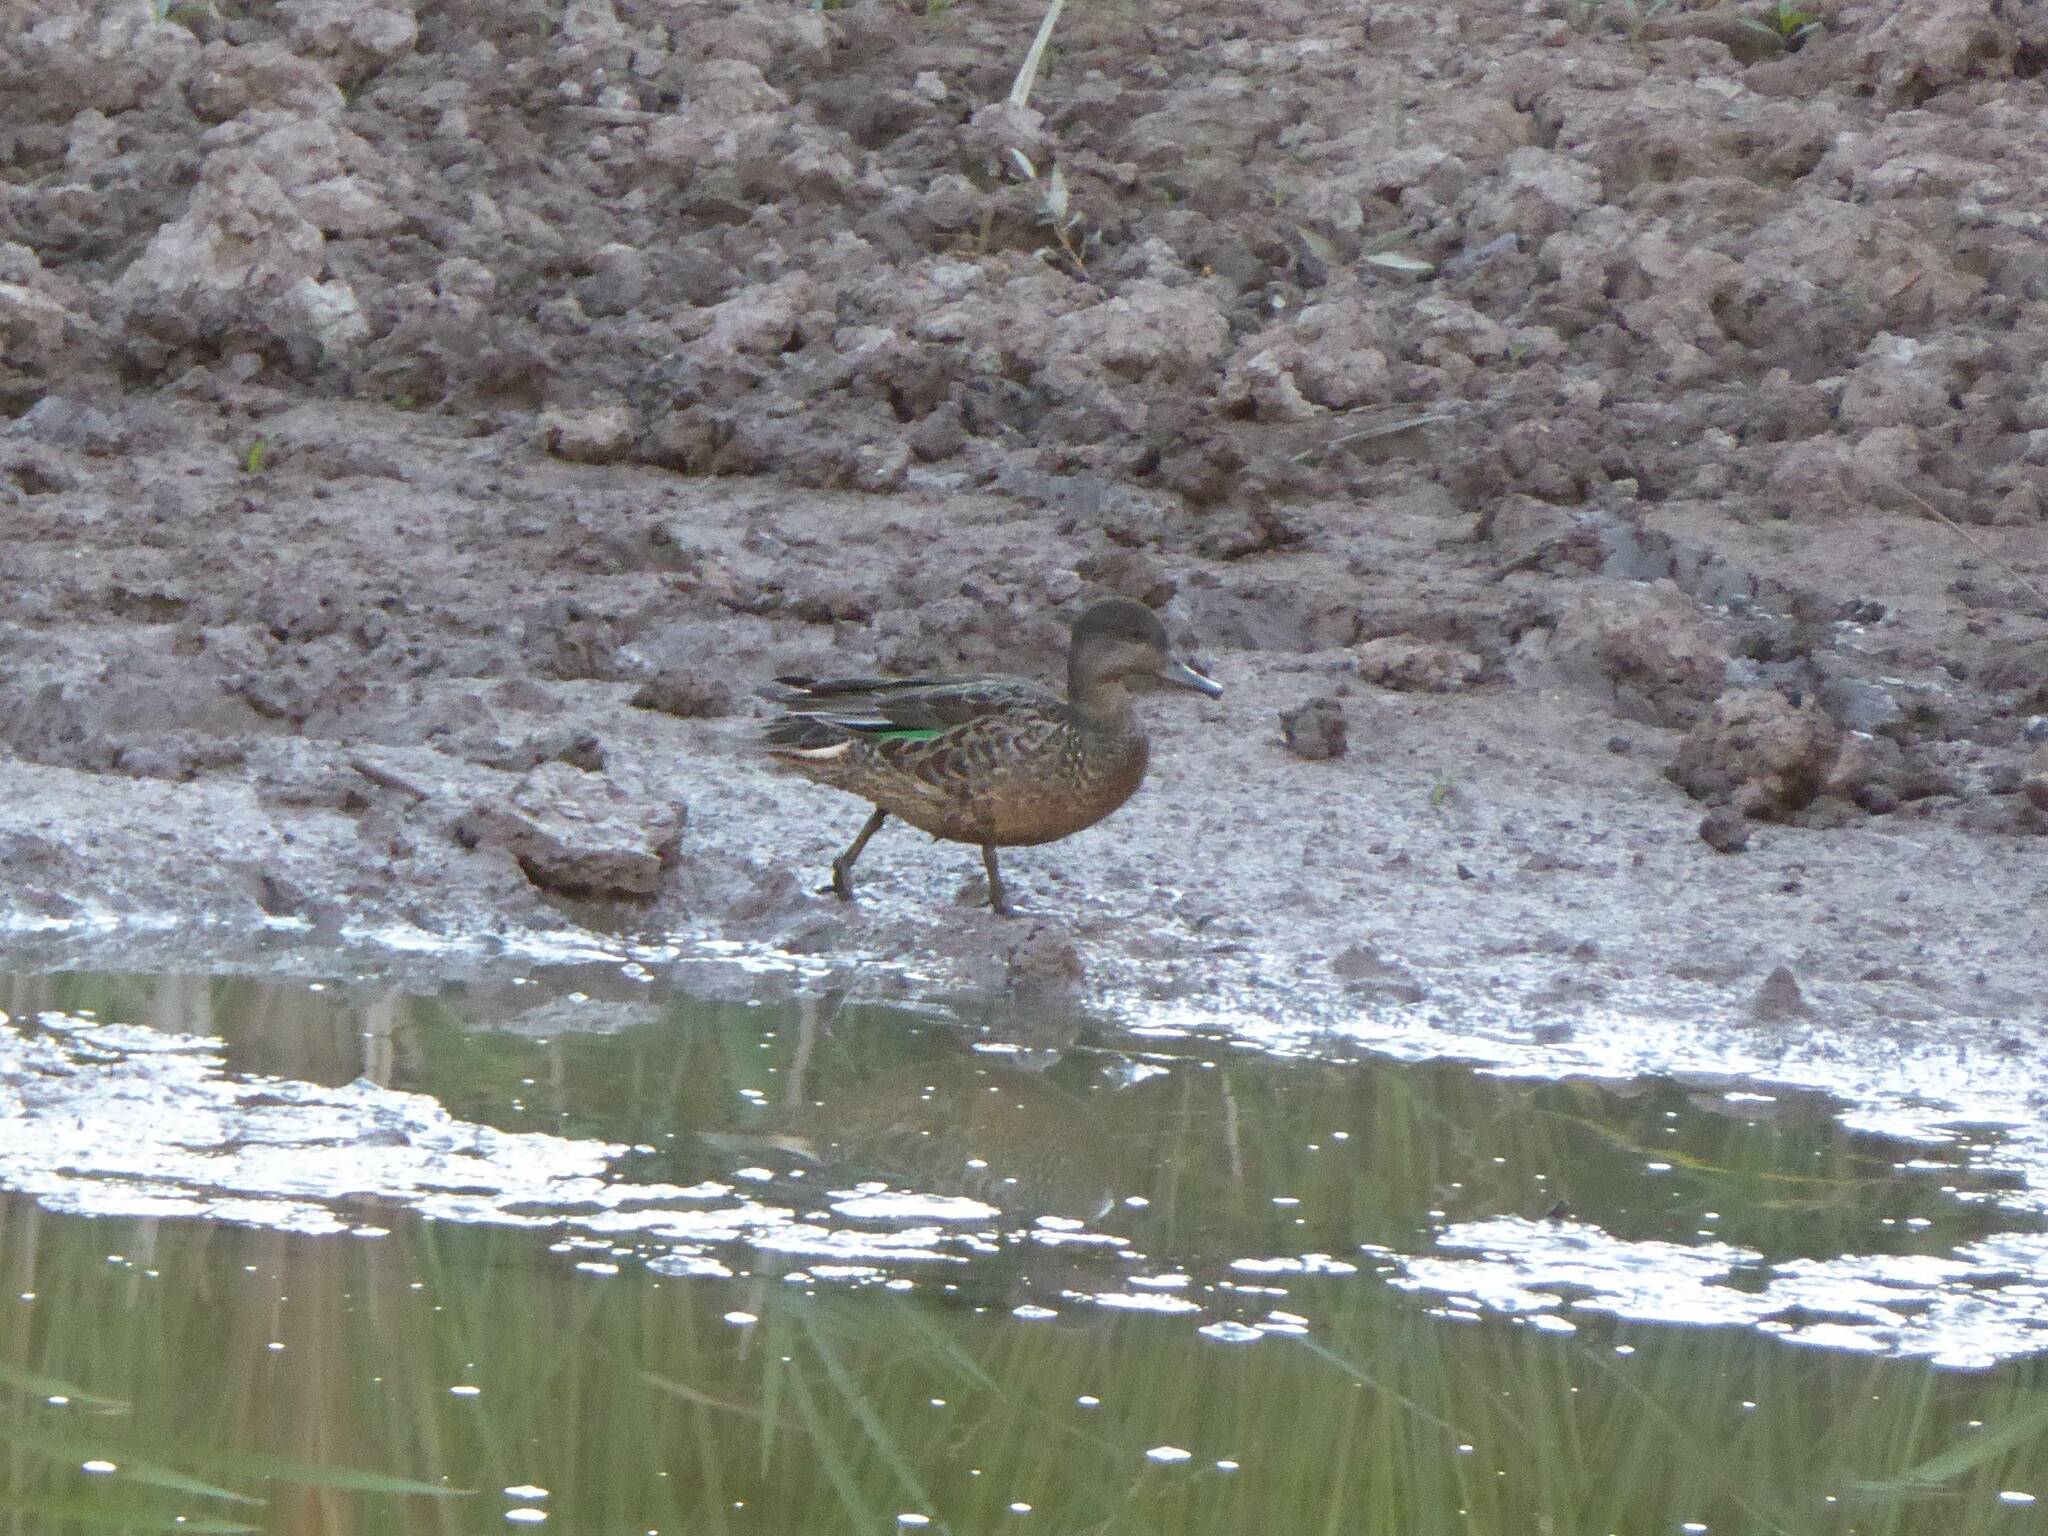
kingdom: Animalia
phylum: Chordata
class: Aves
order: Anseriformes
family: Anatidae
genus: Anas
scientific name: Anas crecca
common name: Eurasian teal
